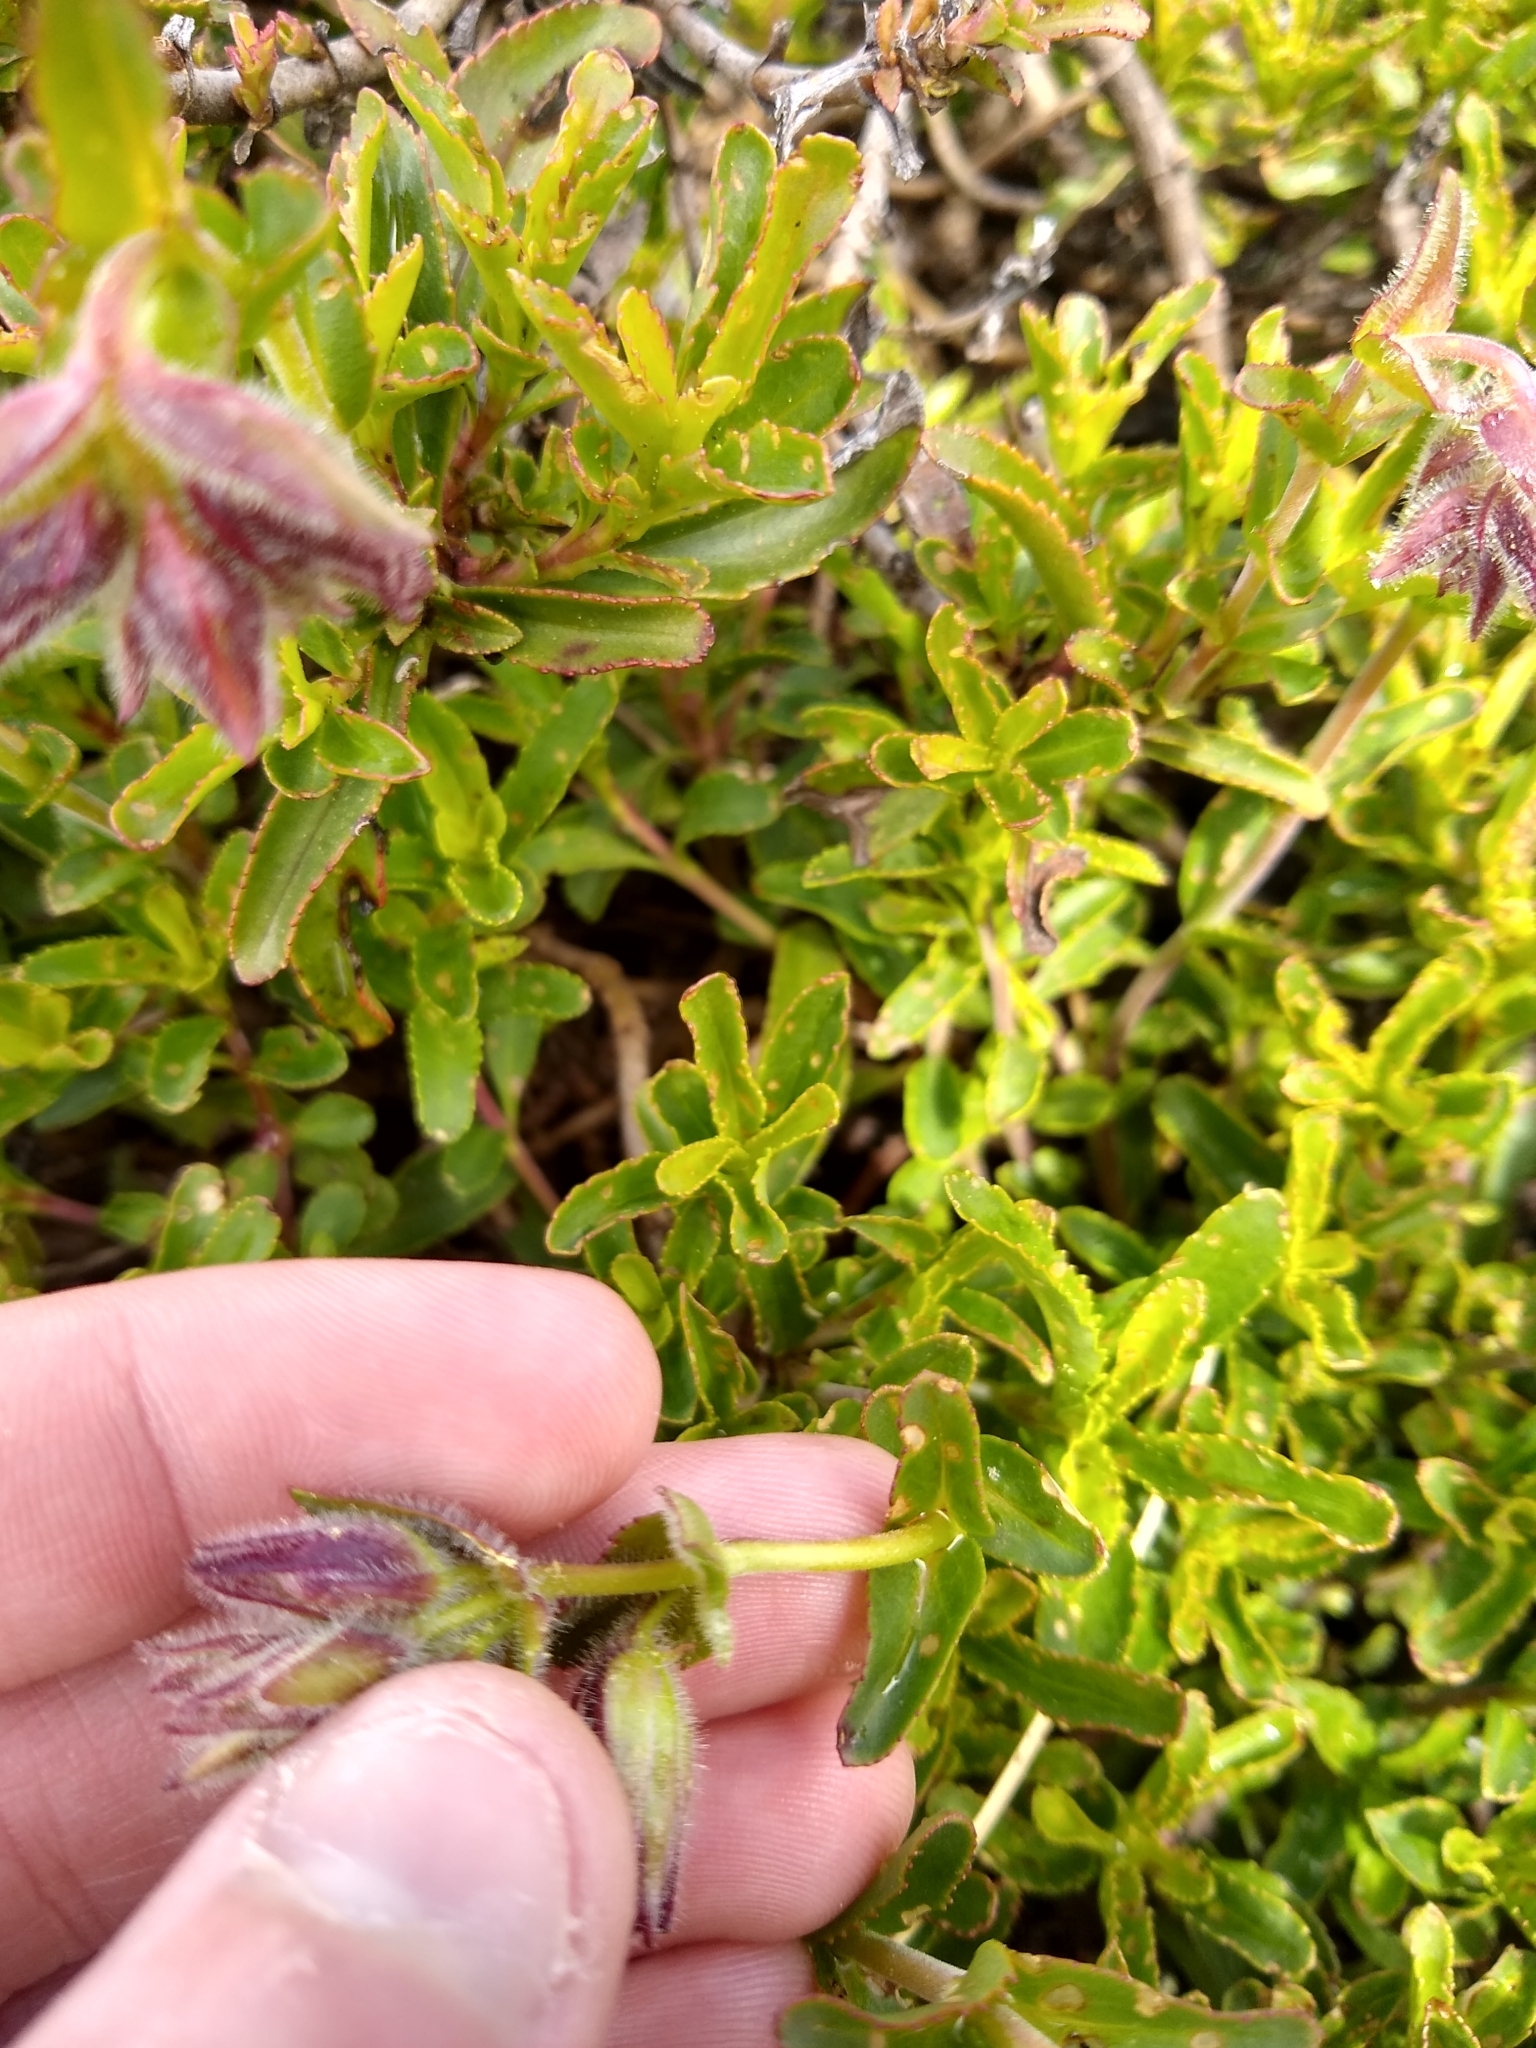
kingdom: Plantae
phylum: Tracheophyta
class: Magnoliopsida
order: Lamiales
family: Plantaginaceae
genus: Penstemon
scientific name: Penstemon cardwellii
